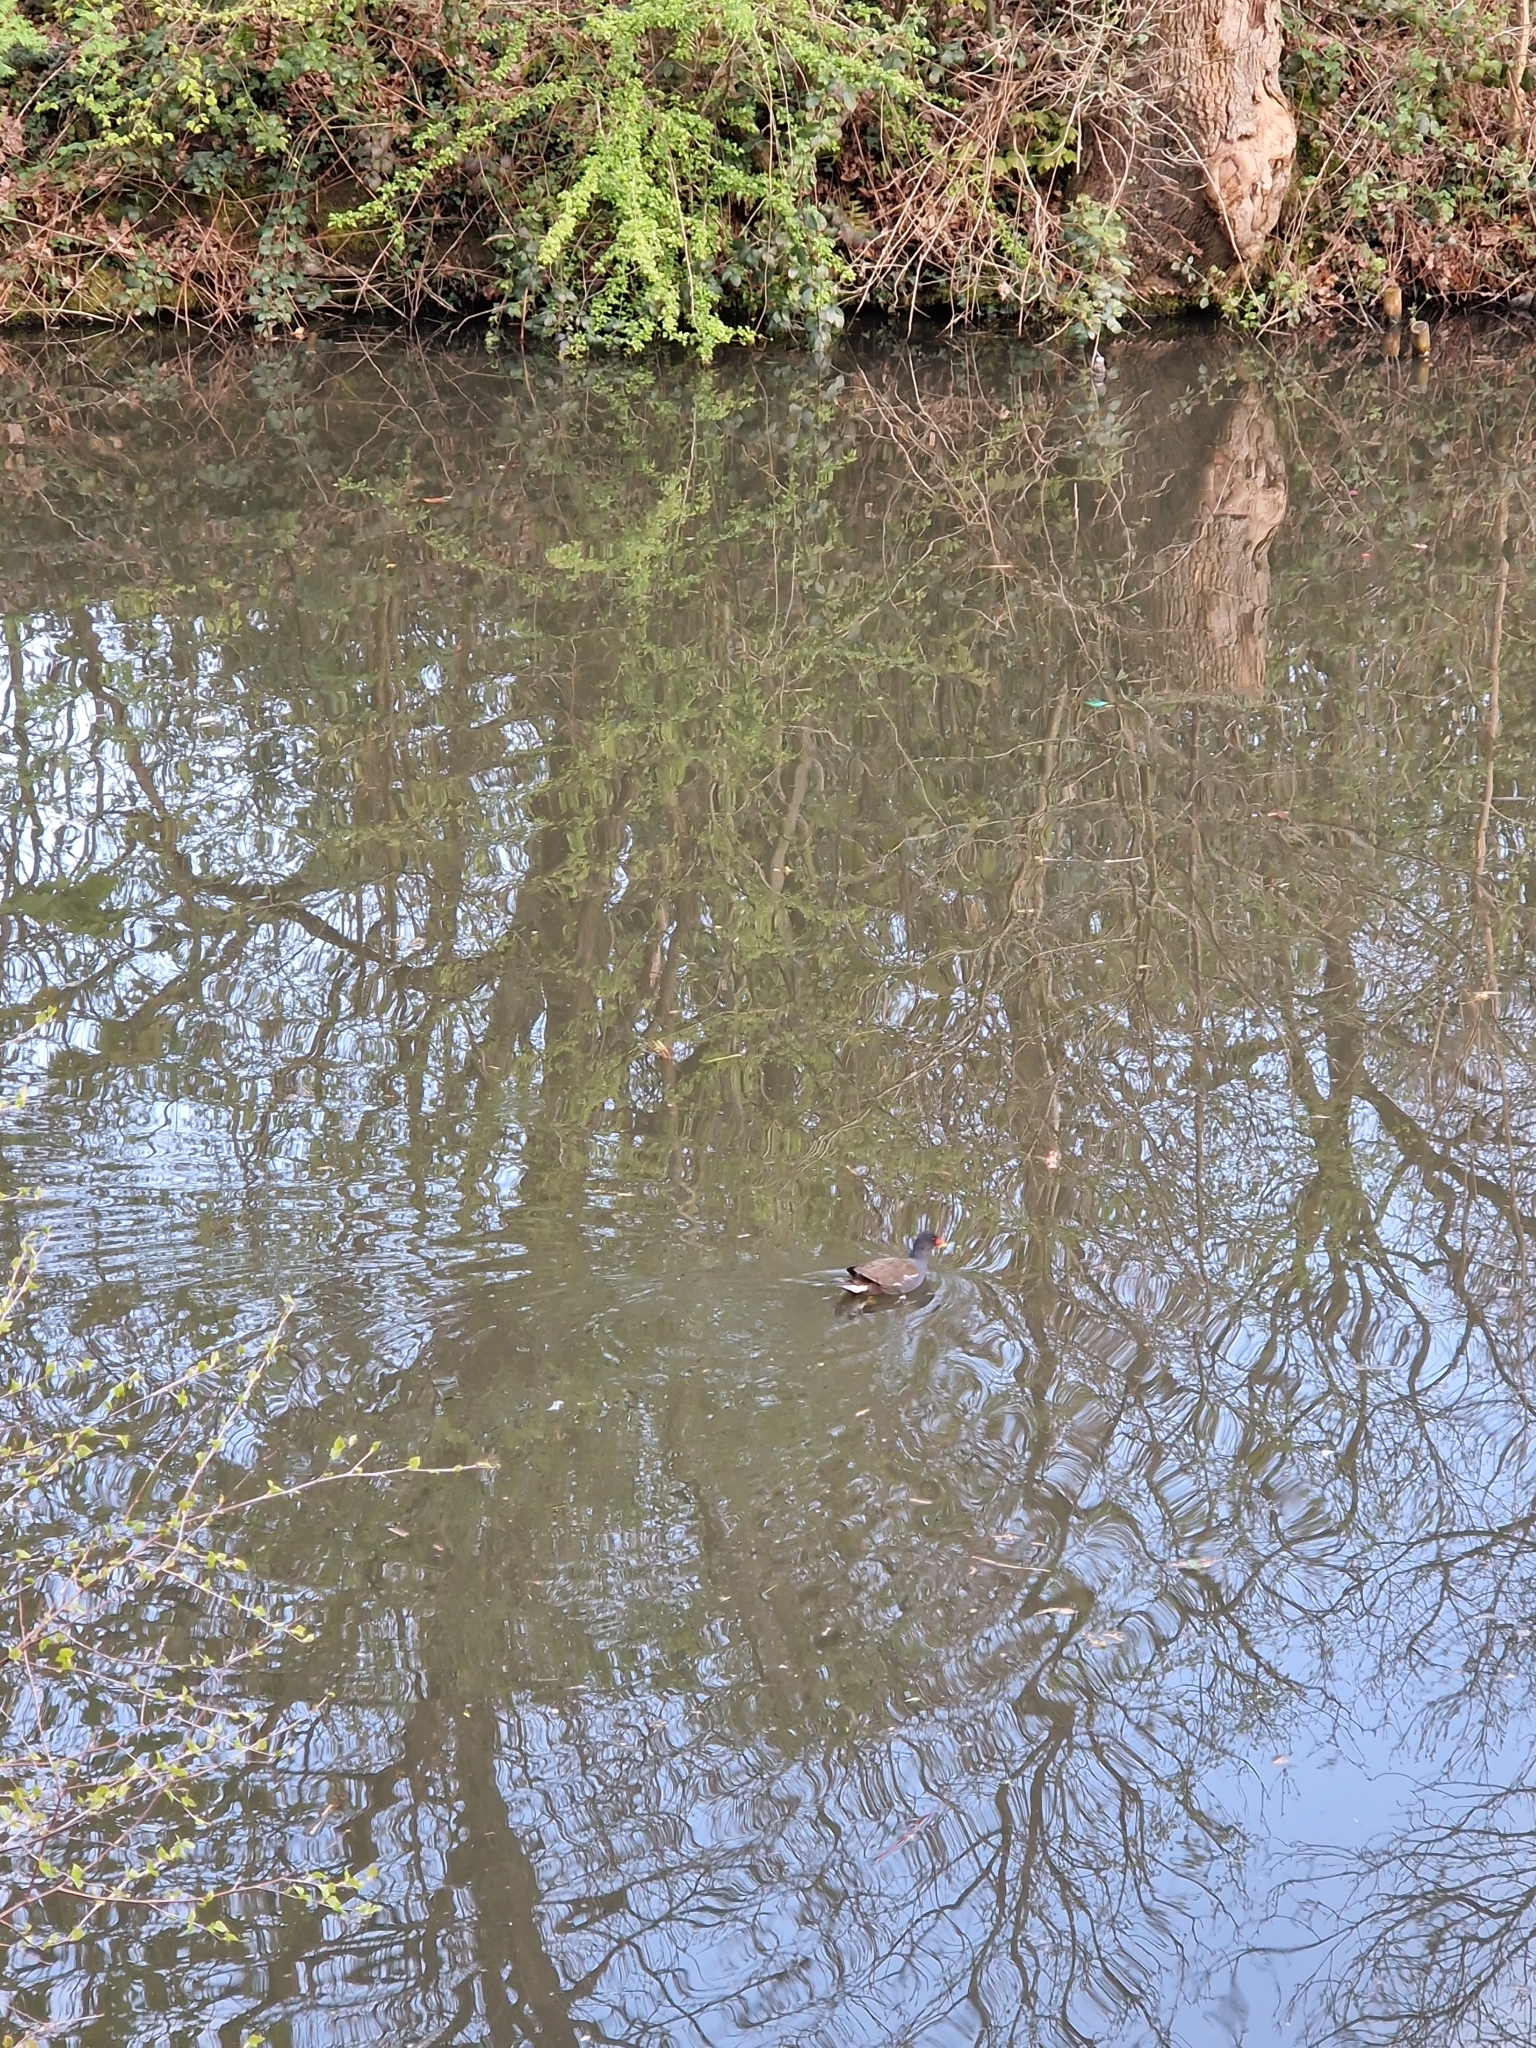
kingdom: Animalia
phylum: Chordata
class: Aves
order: Gruiformes
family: Rallidae
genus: Gallinula
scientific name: Gallinula chloropus
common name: Common moorhen
